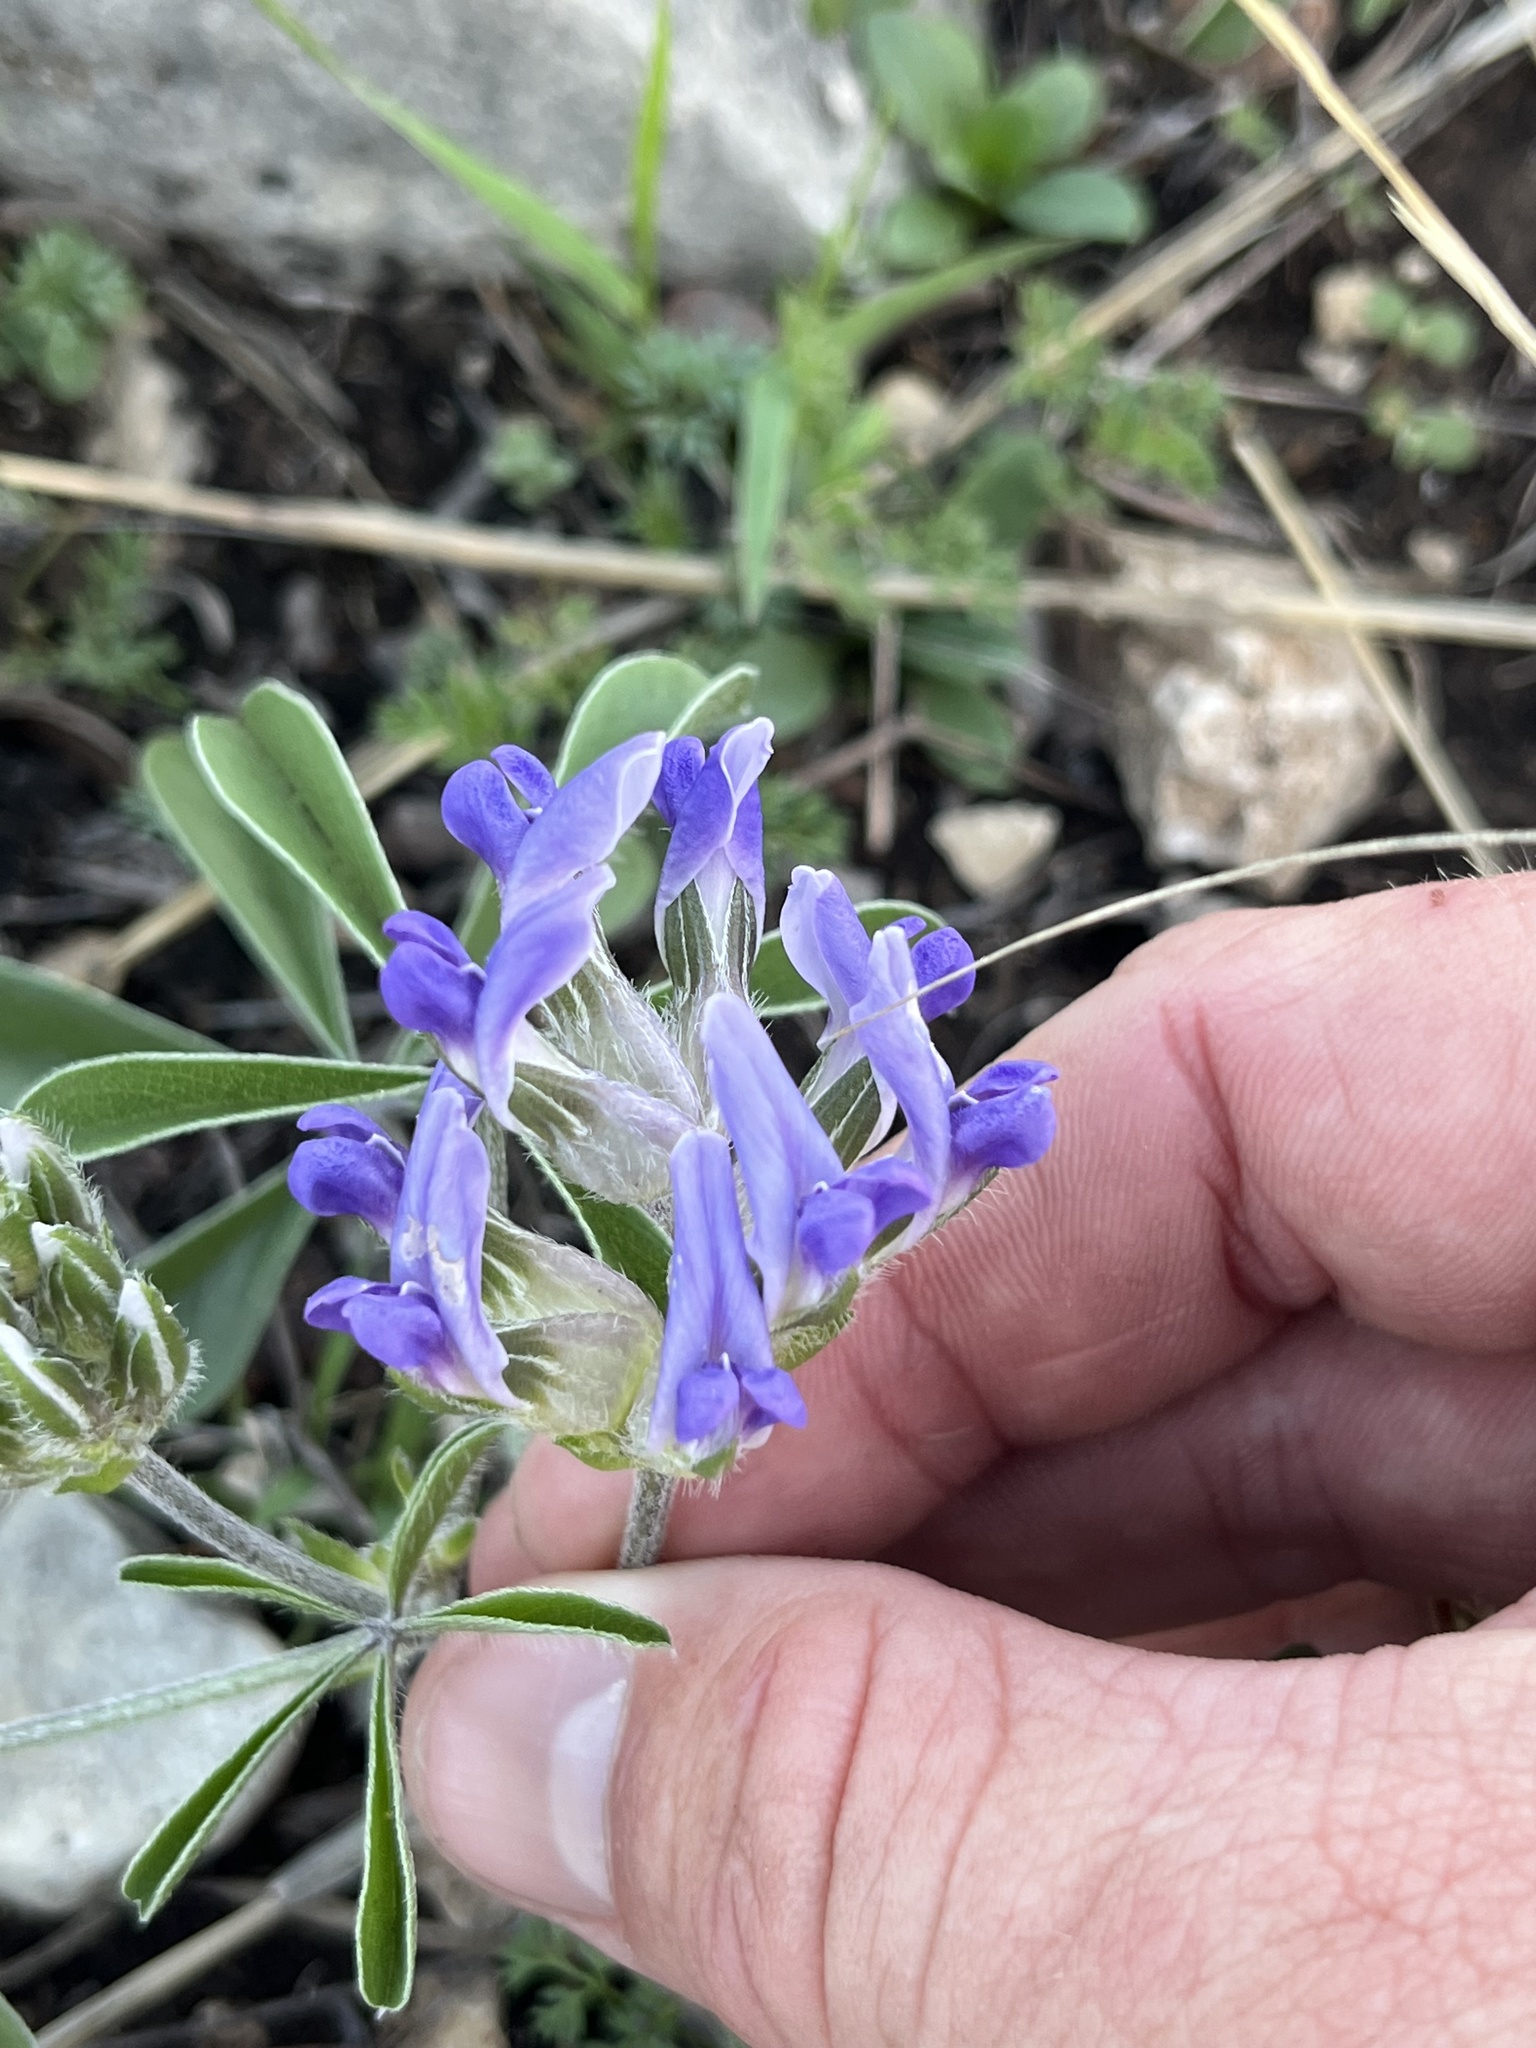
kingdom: Plantae
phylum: Tracheophyta
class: Magnoliopsida
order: Fabales
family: Fabaceae
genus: Pediomelum
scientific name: Pediomelum latestipulatum
